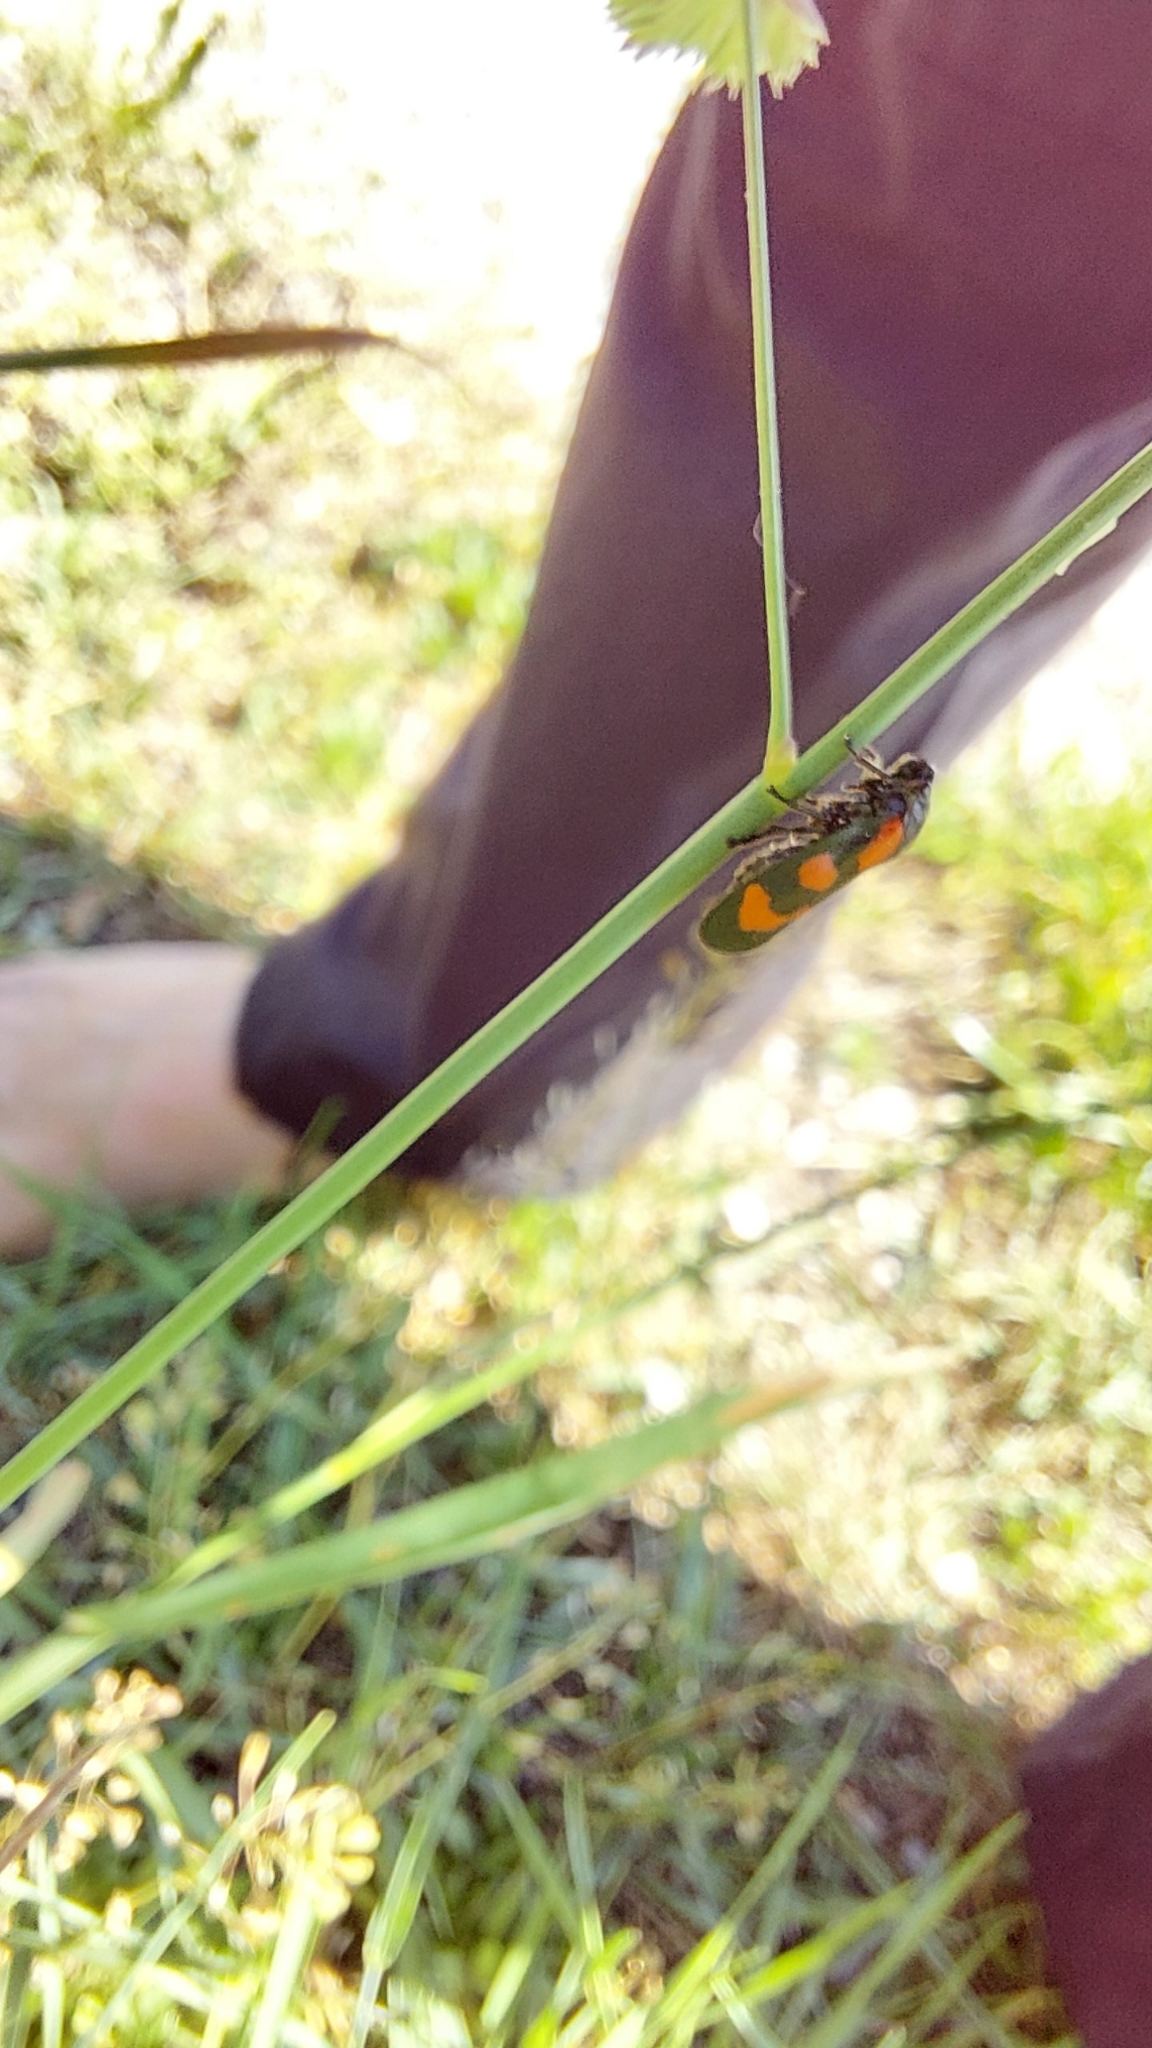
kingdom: Animalia
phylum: Arthropoda
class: Insecta
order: Hemiptera
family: Cercopidae
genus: Cercopis
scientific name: Cercopis vulnerata
